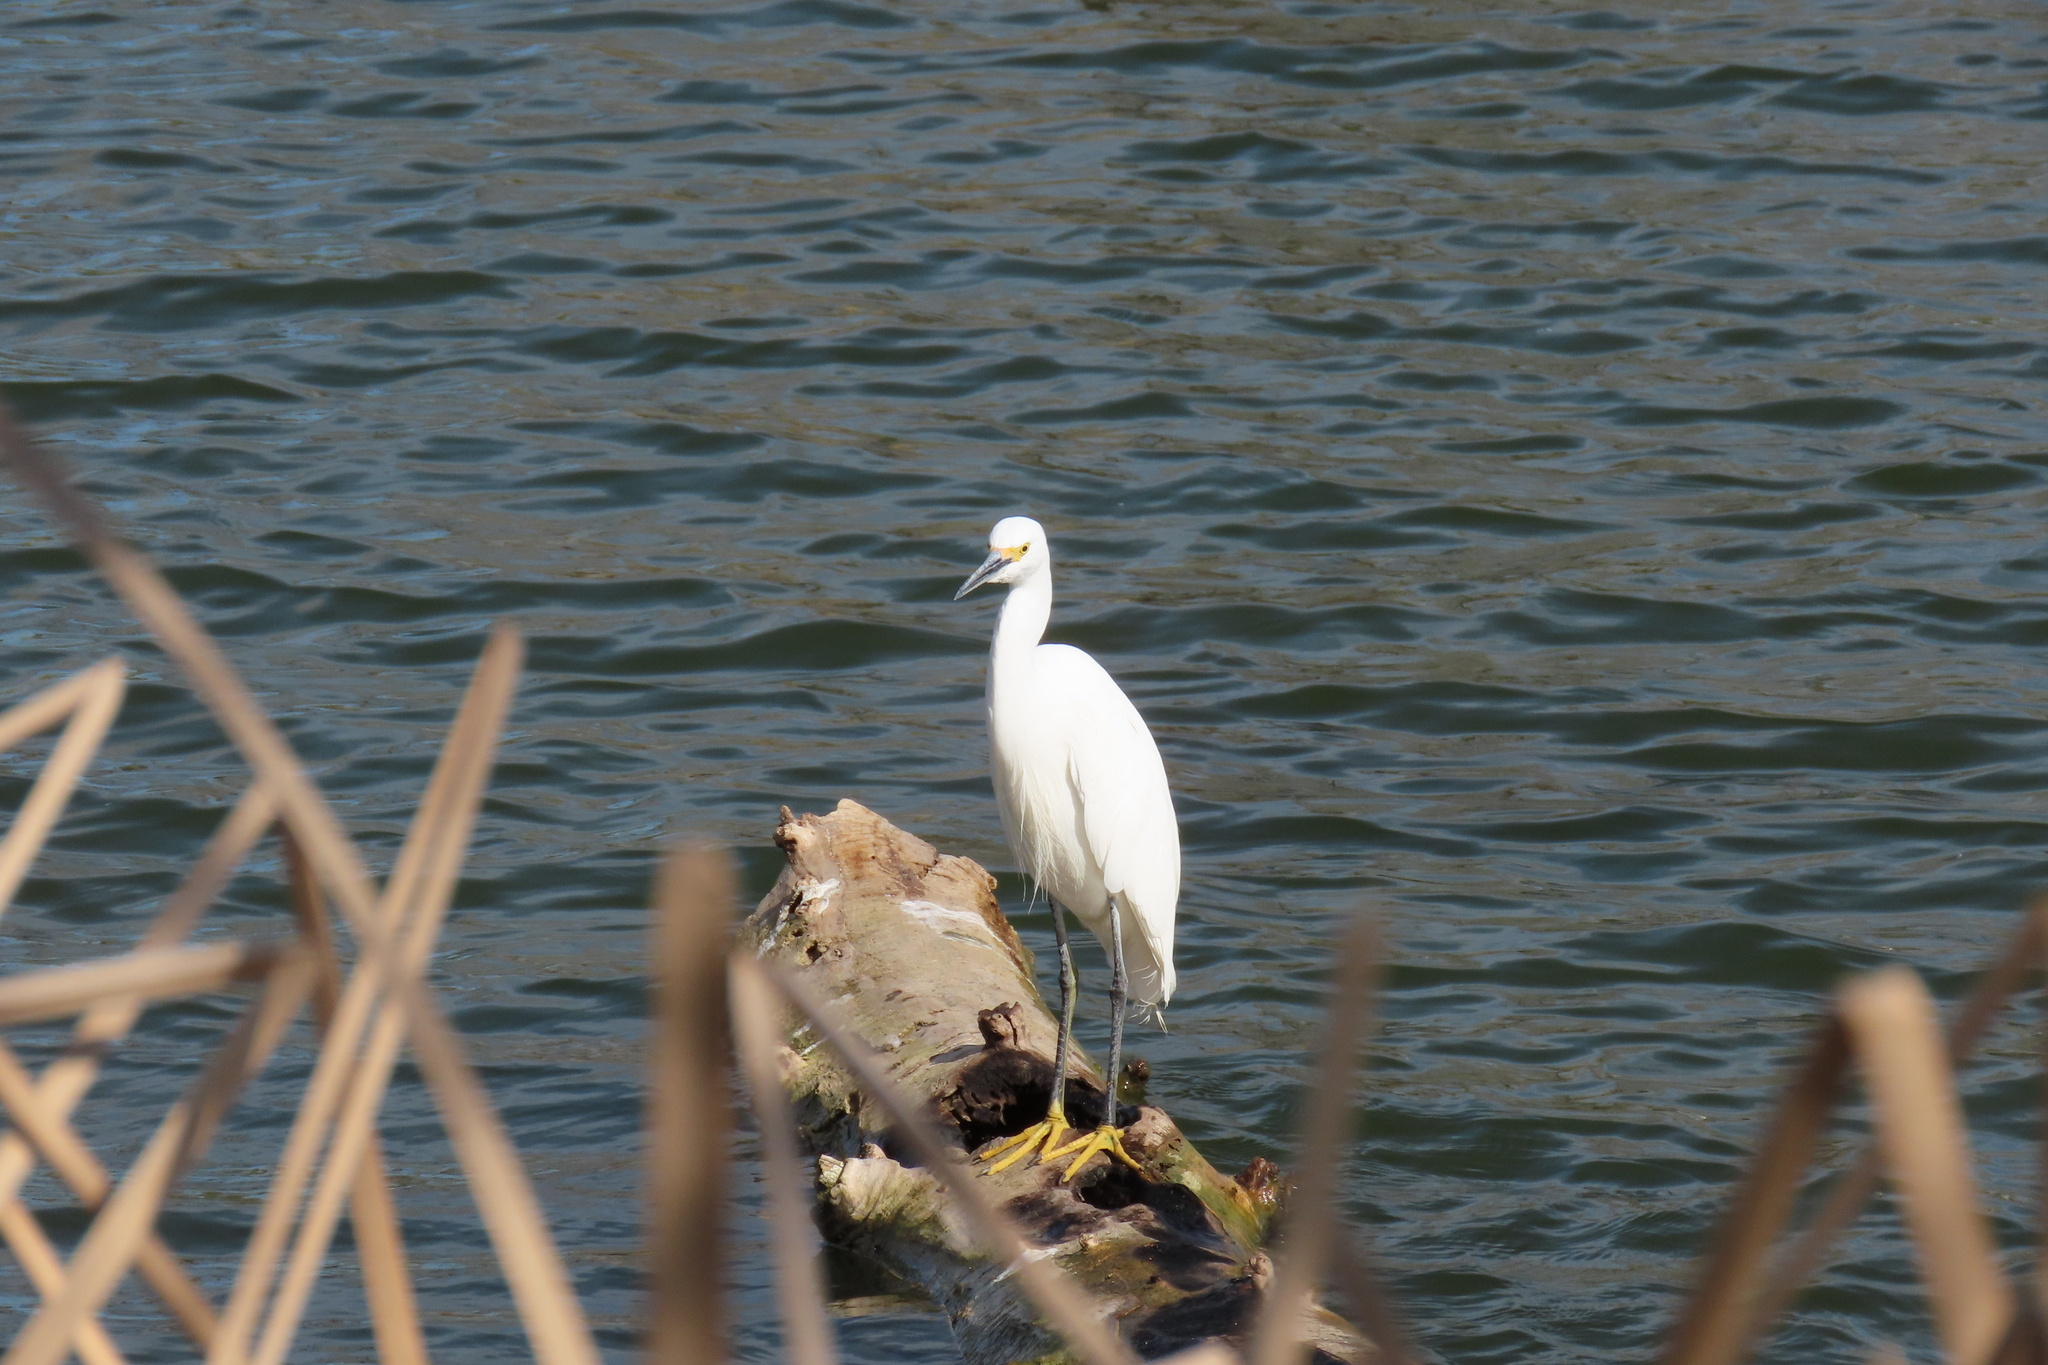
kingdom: Animalia
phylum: Chordata
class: Aves
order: Pelecaniformes
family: Ardeidae
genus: Egretta
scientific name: Egretta thula
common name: Snowy egret
